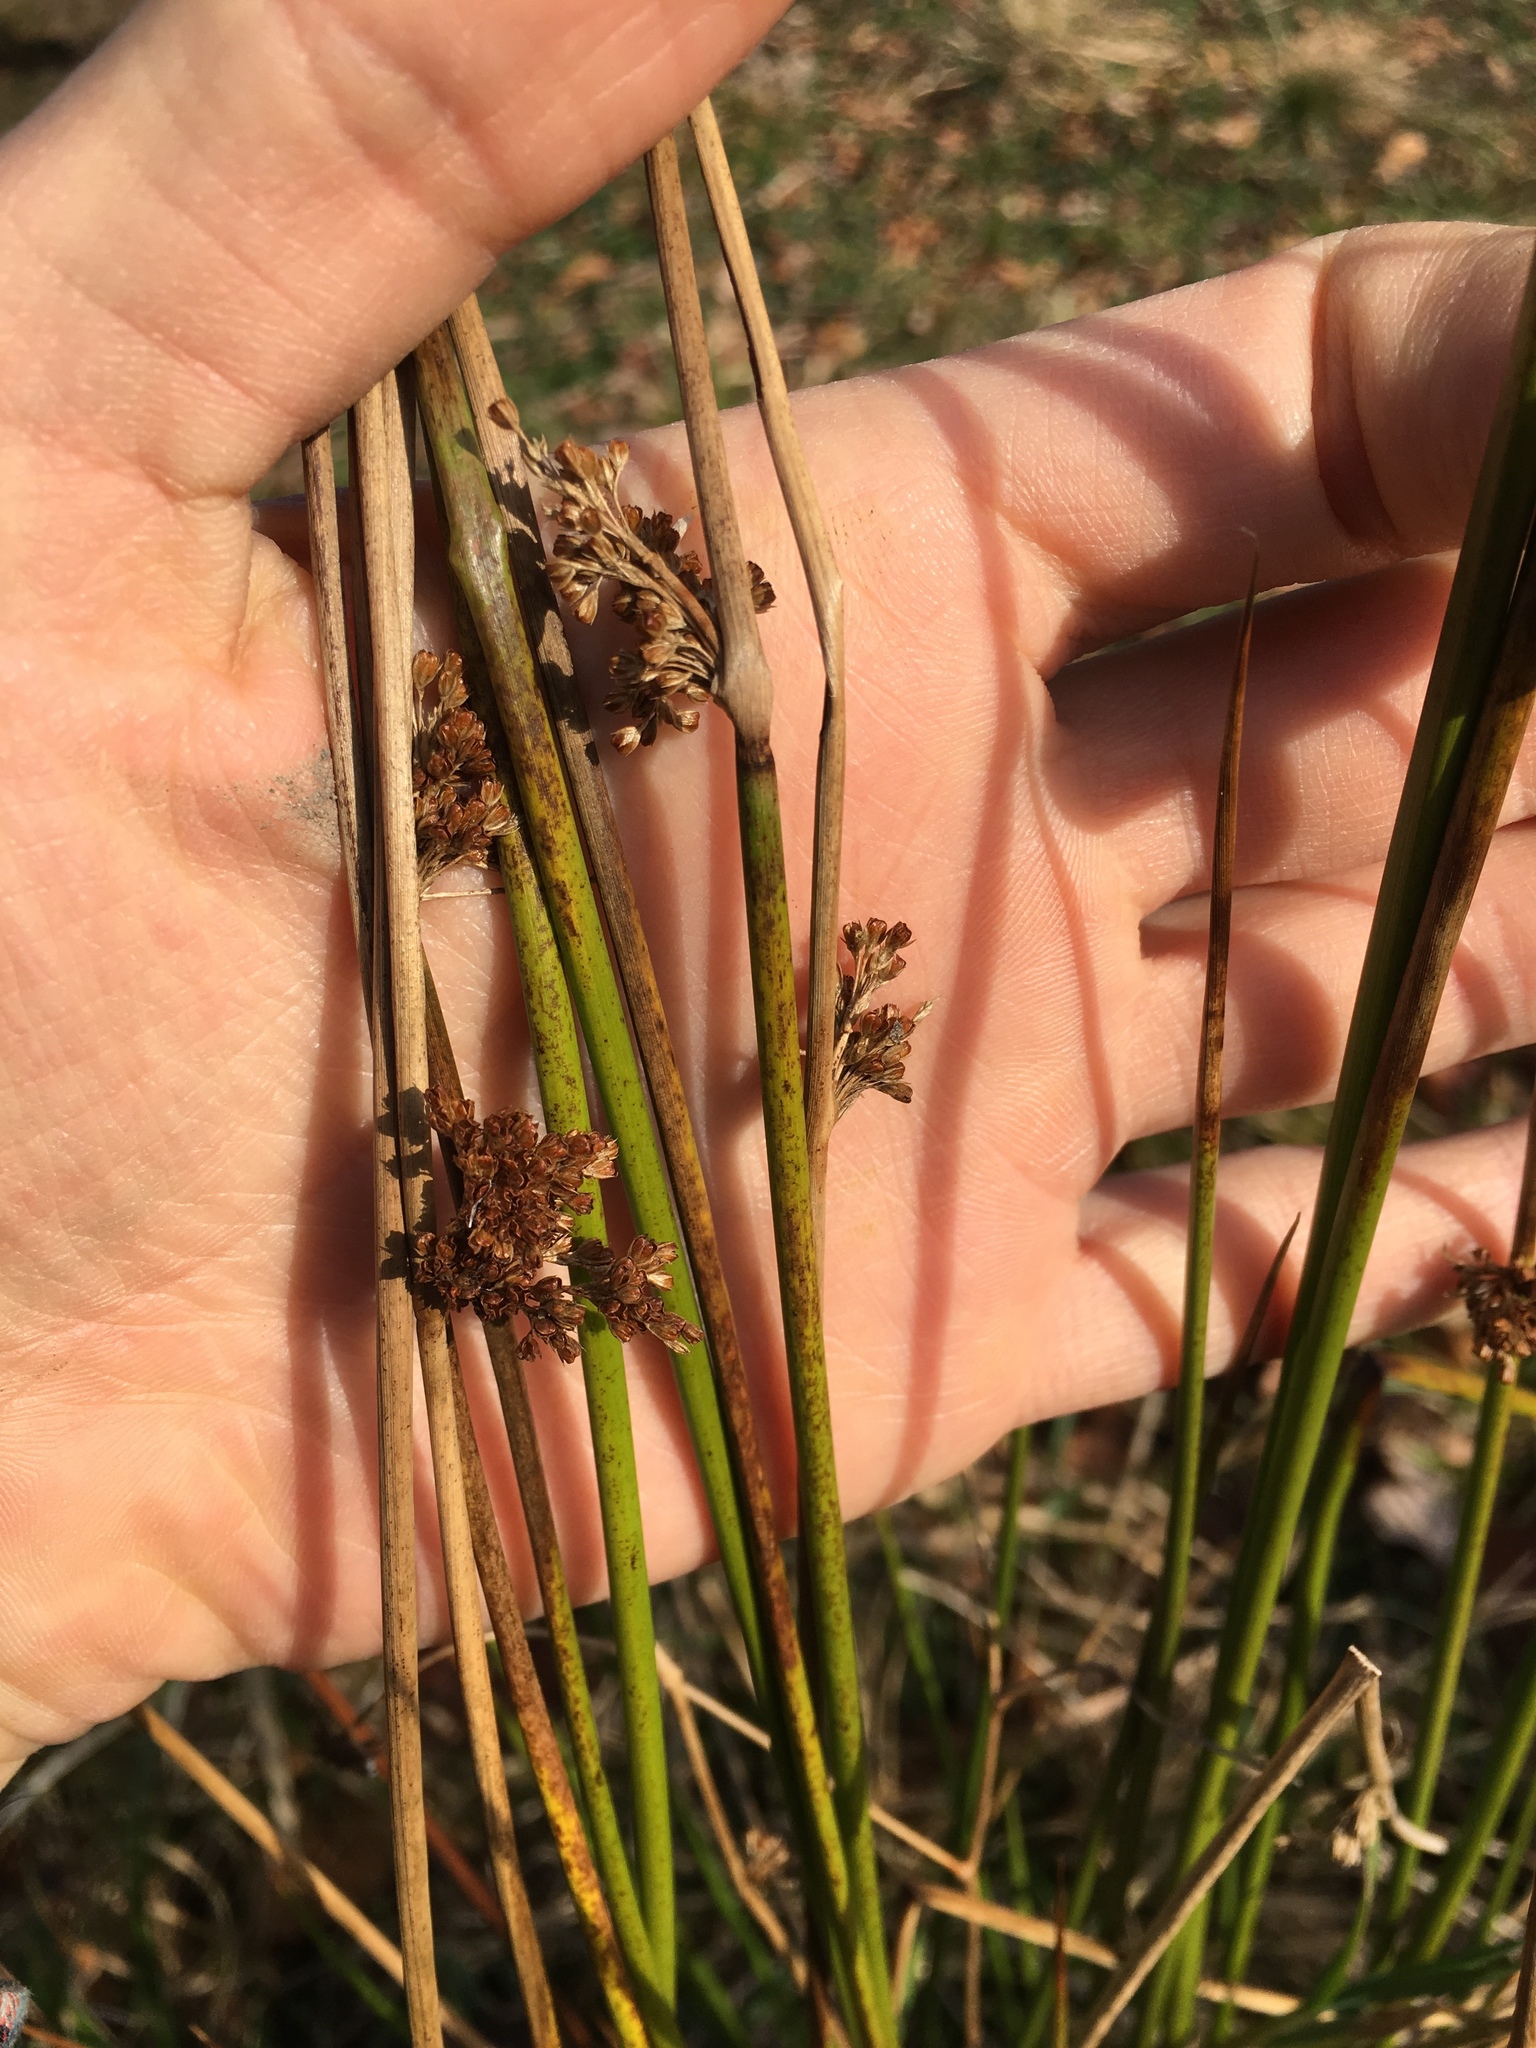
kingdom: Plantae
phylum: Tracheophyta
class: Liliopsida
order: Poales
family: Juncaceae
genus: Juncus
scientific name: Juncus effusus
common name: Soft rush
